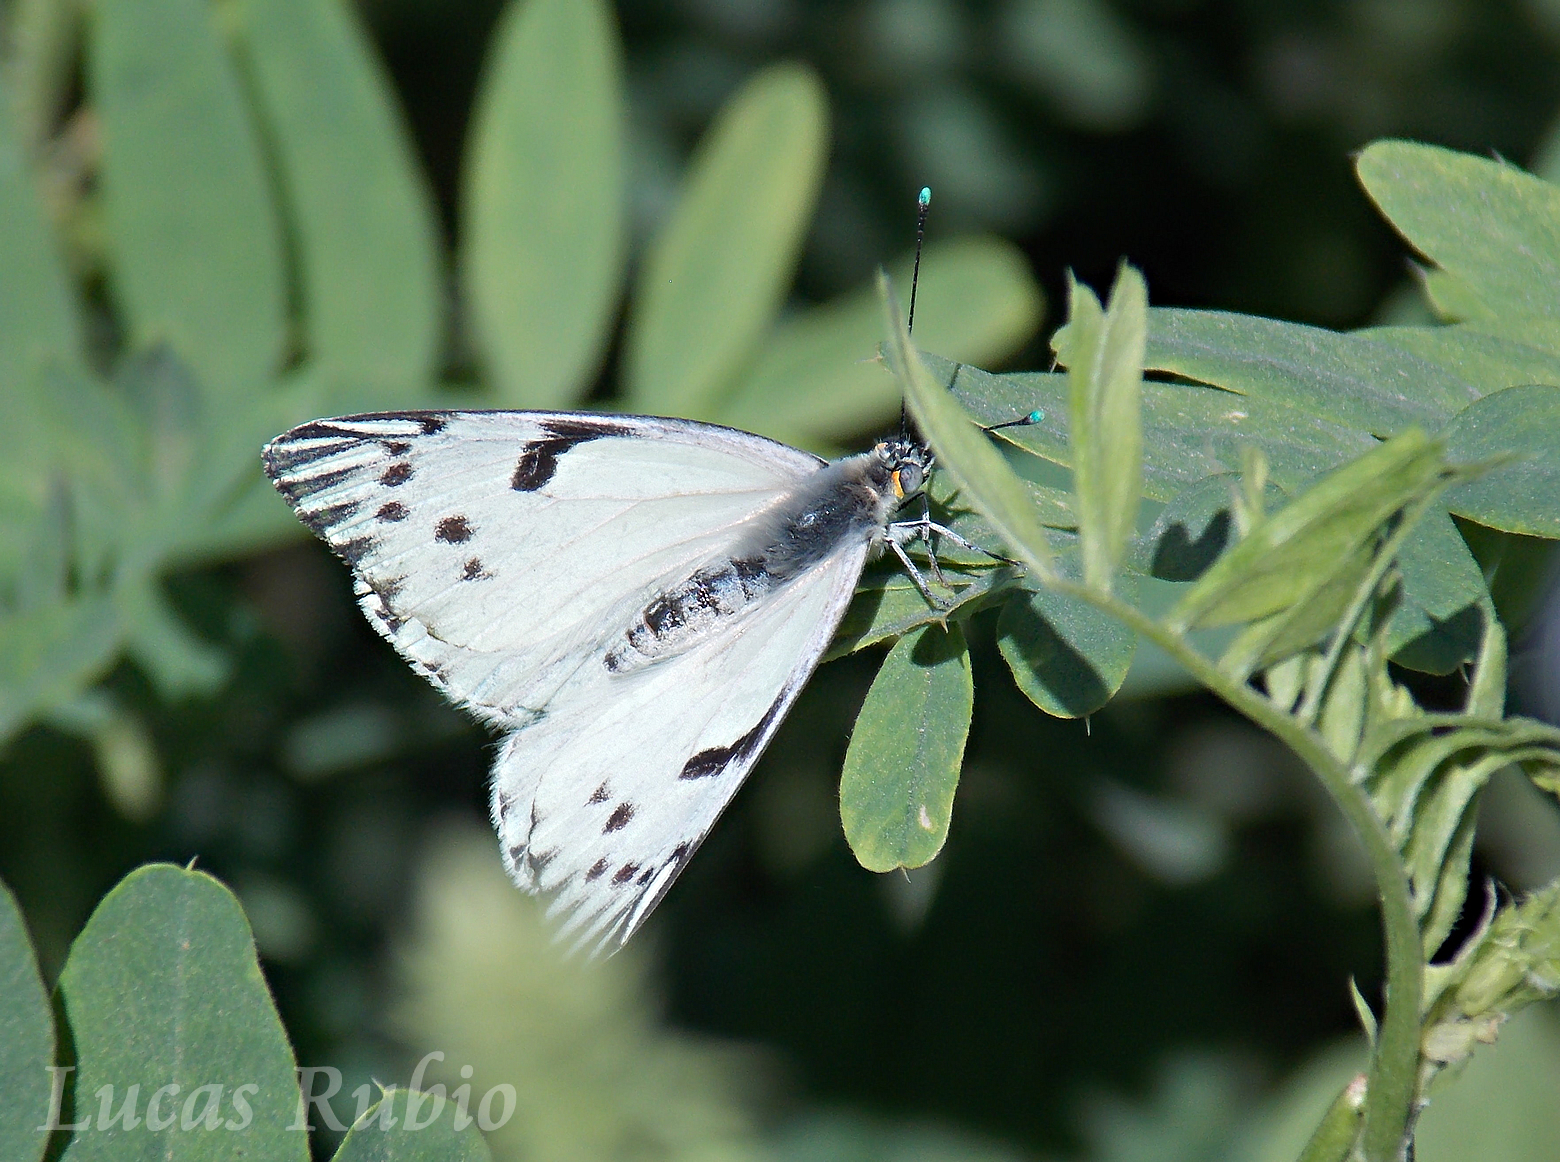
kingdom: Animalia
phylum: Arthropoda
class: Insecta
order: Lepidoptera
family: Pieridae
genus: Tatochila
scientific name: Tatochila autodice
